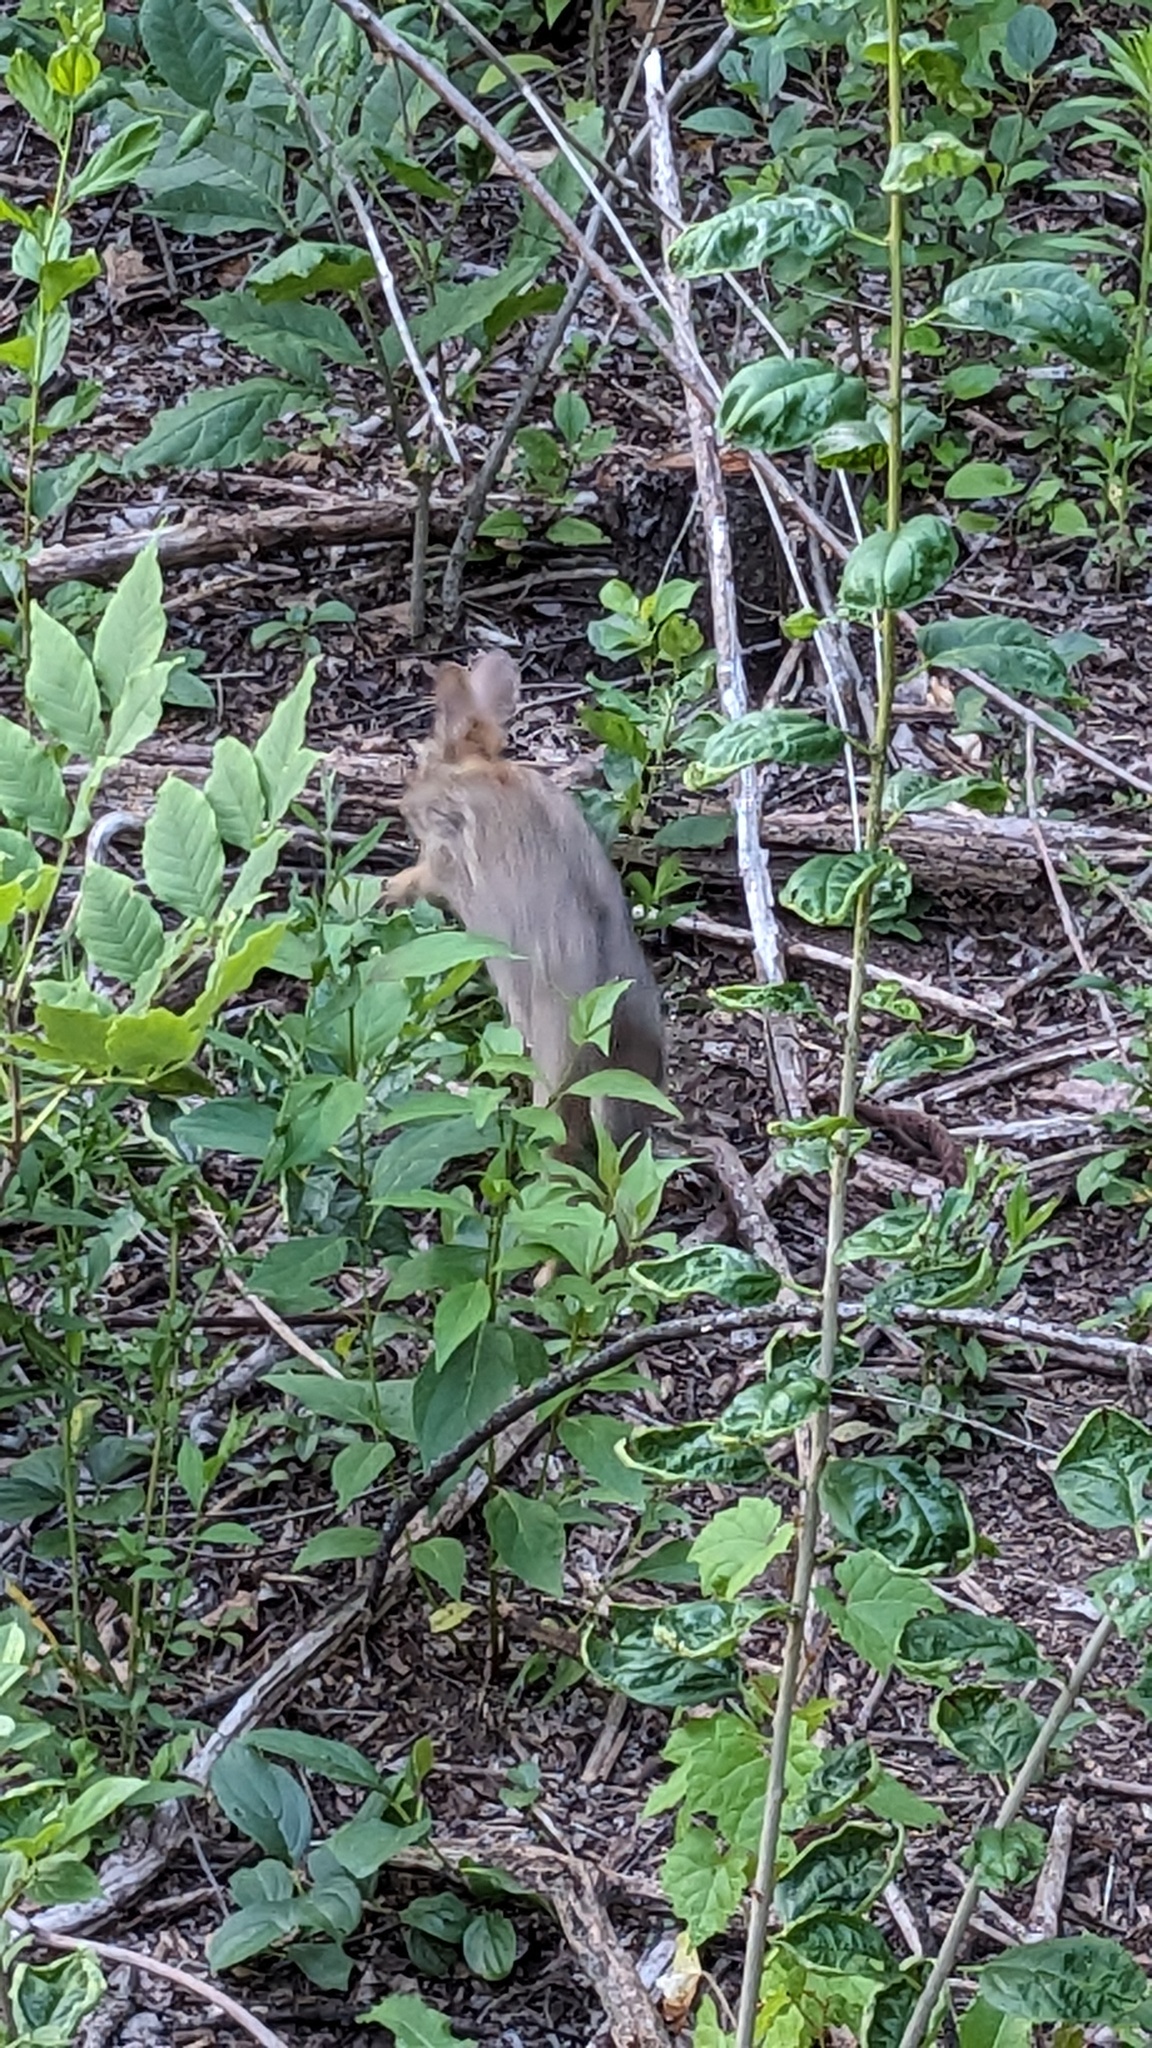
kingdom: Animalia
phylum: Chordata
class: Mammalia
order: Lagomorpha
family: Leporidae
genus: Sylvilagus
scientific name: Sylvilagus floridanus
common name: Eastern cottontail
